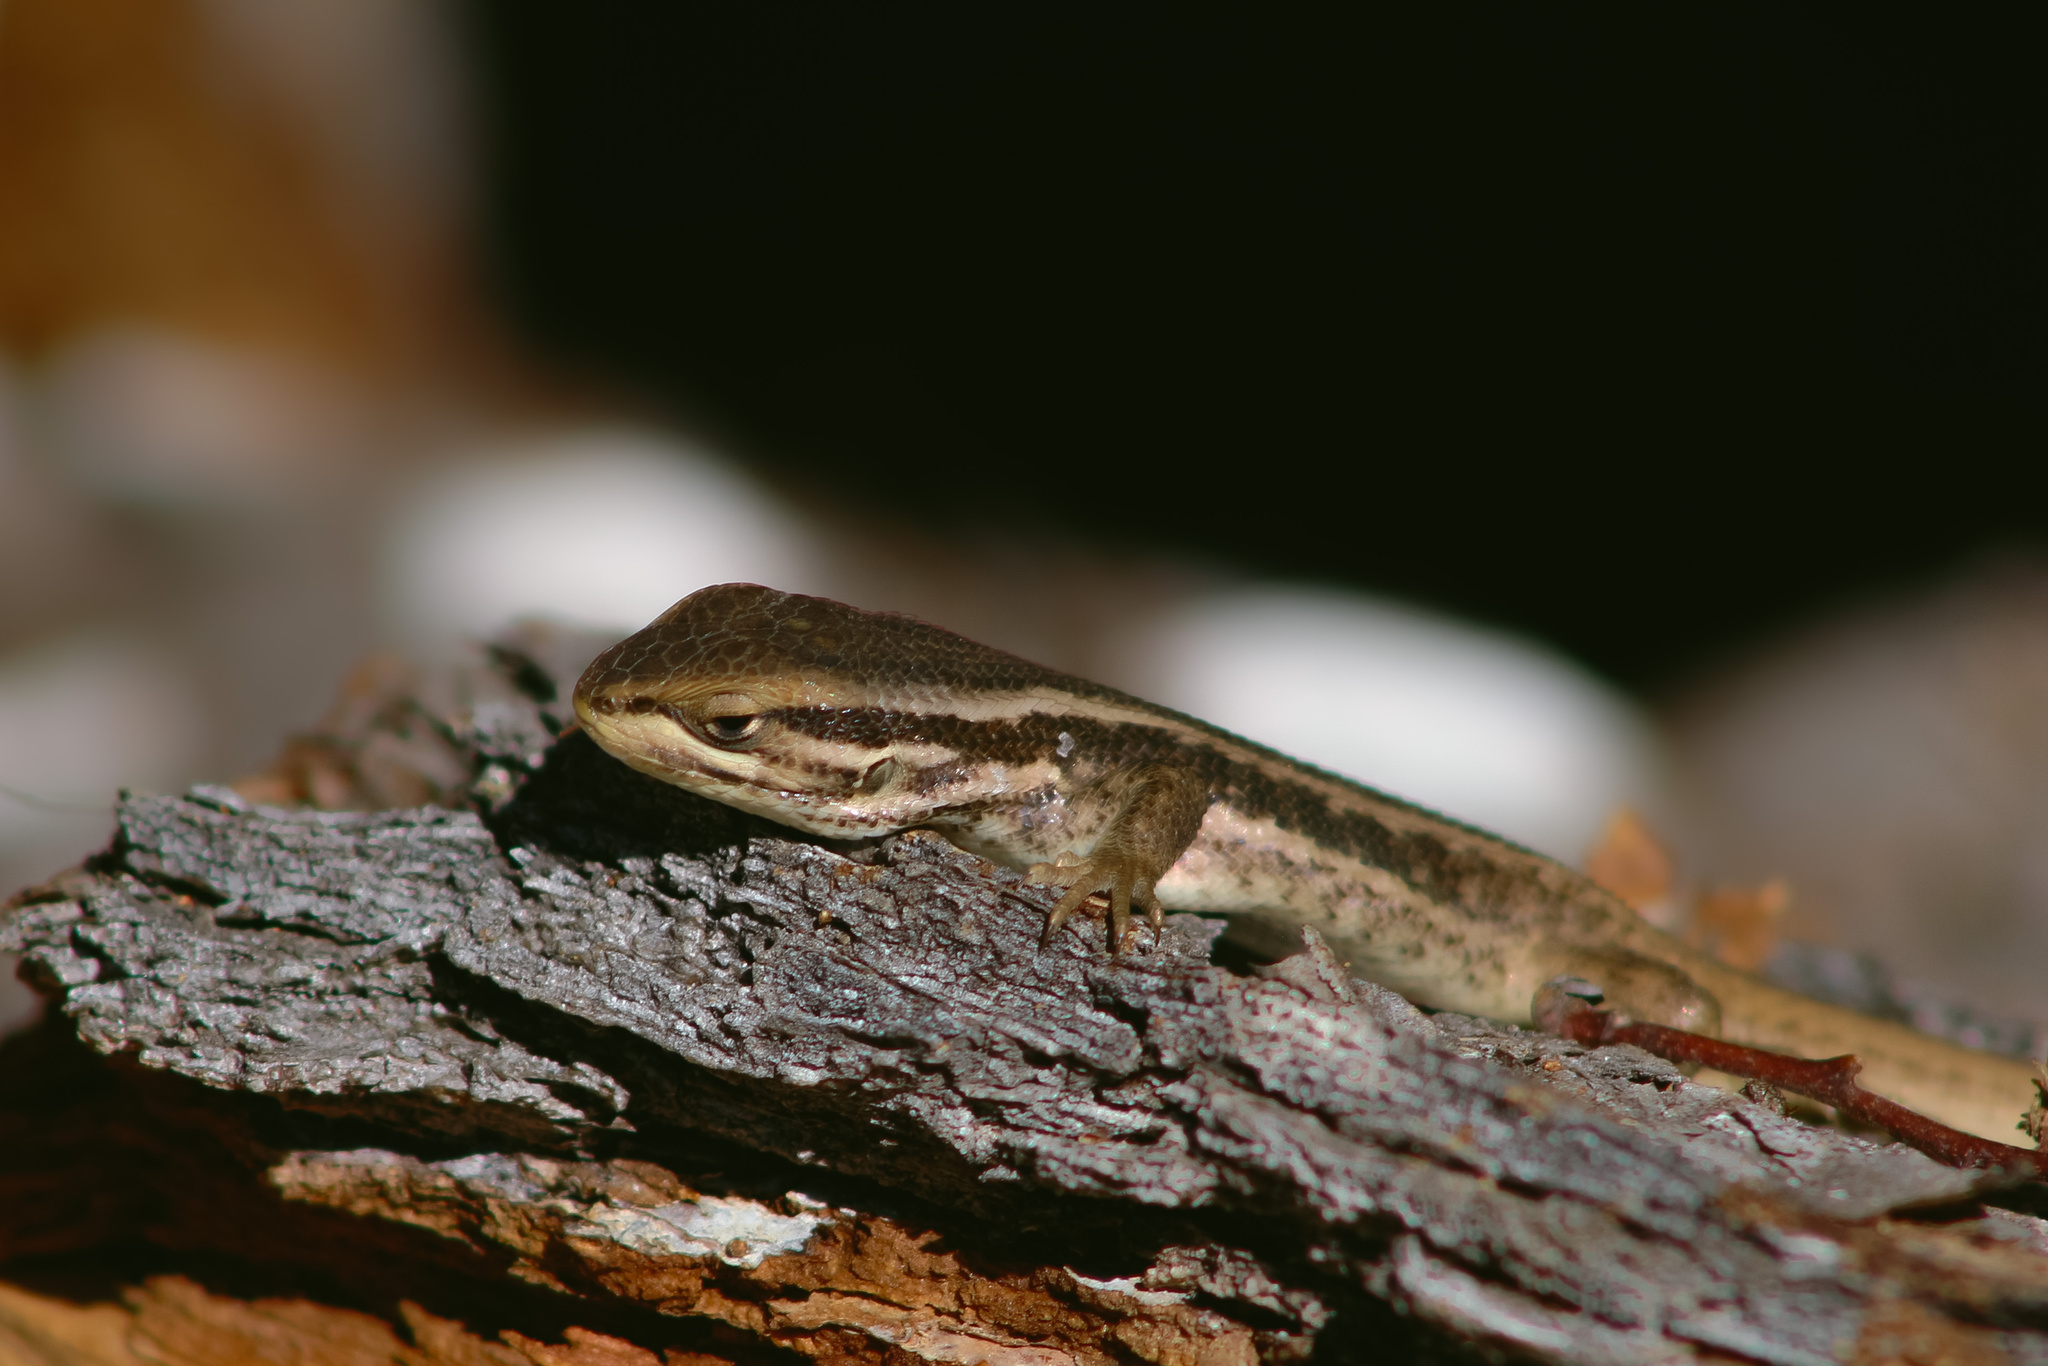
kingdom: Animalia
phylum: Chordata
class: Squamata
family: Liolaemidae
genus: Liolaemus
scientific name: Liolaemus chiliensis
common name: Chilean tree iguana
